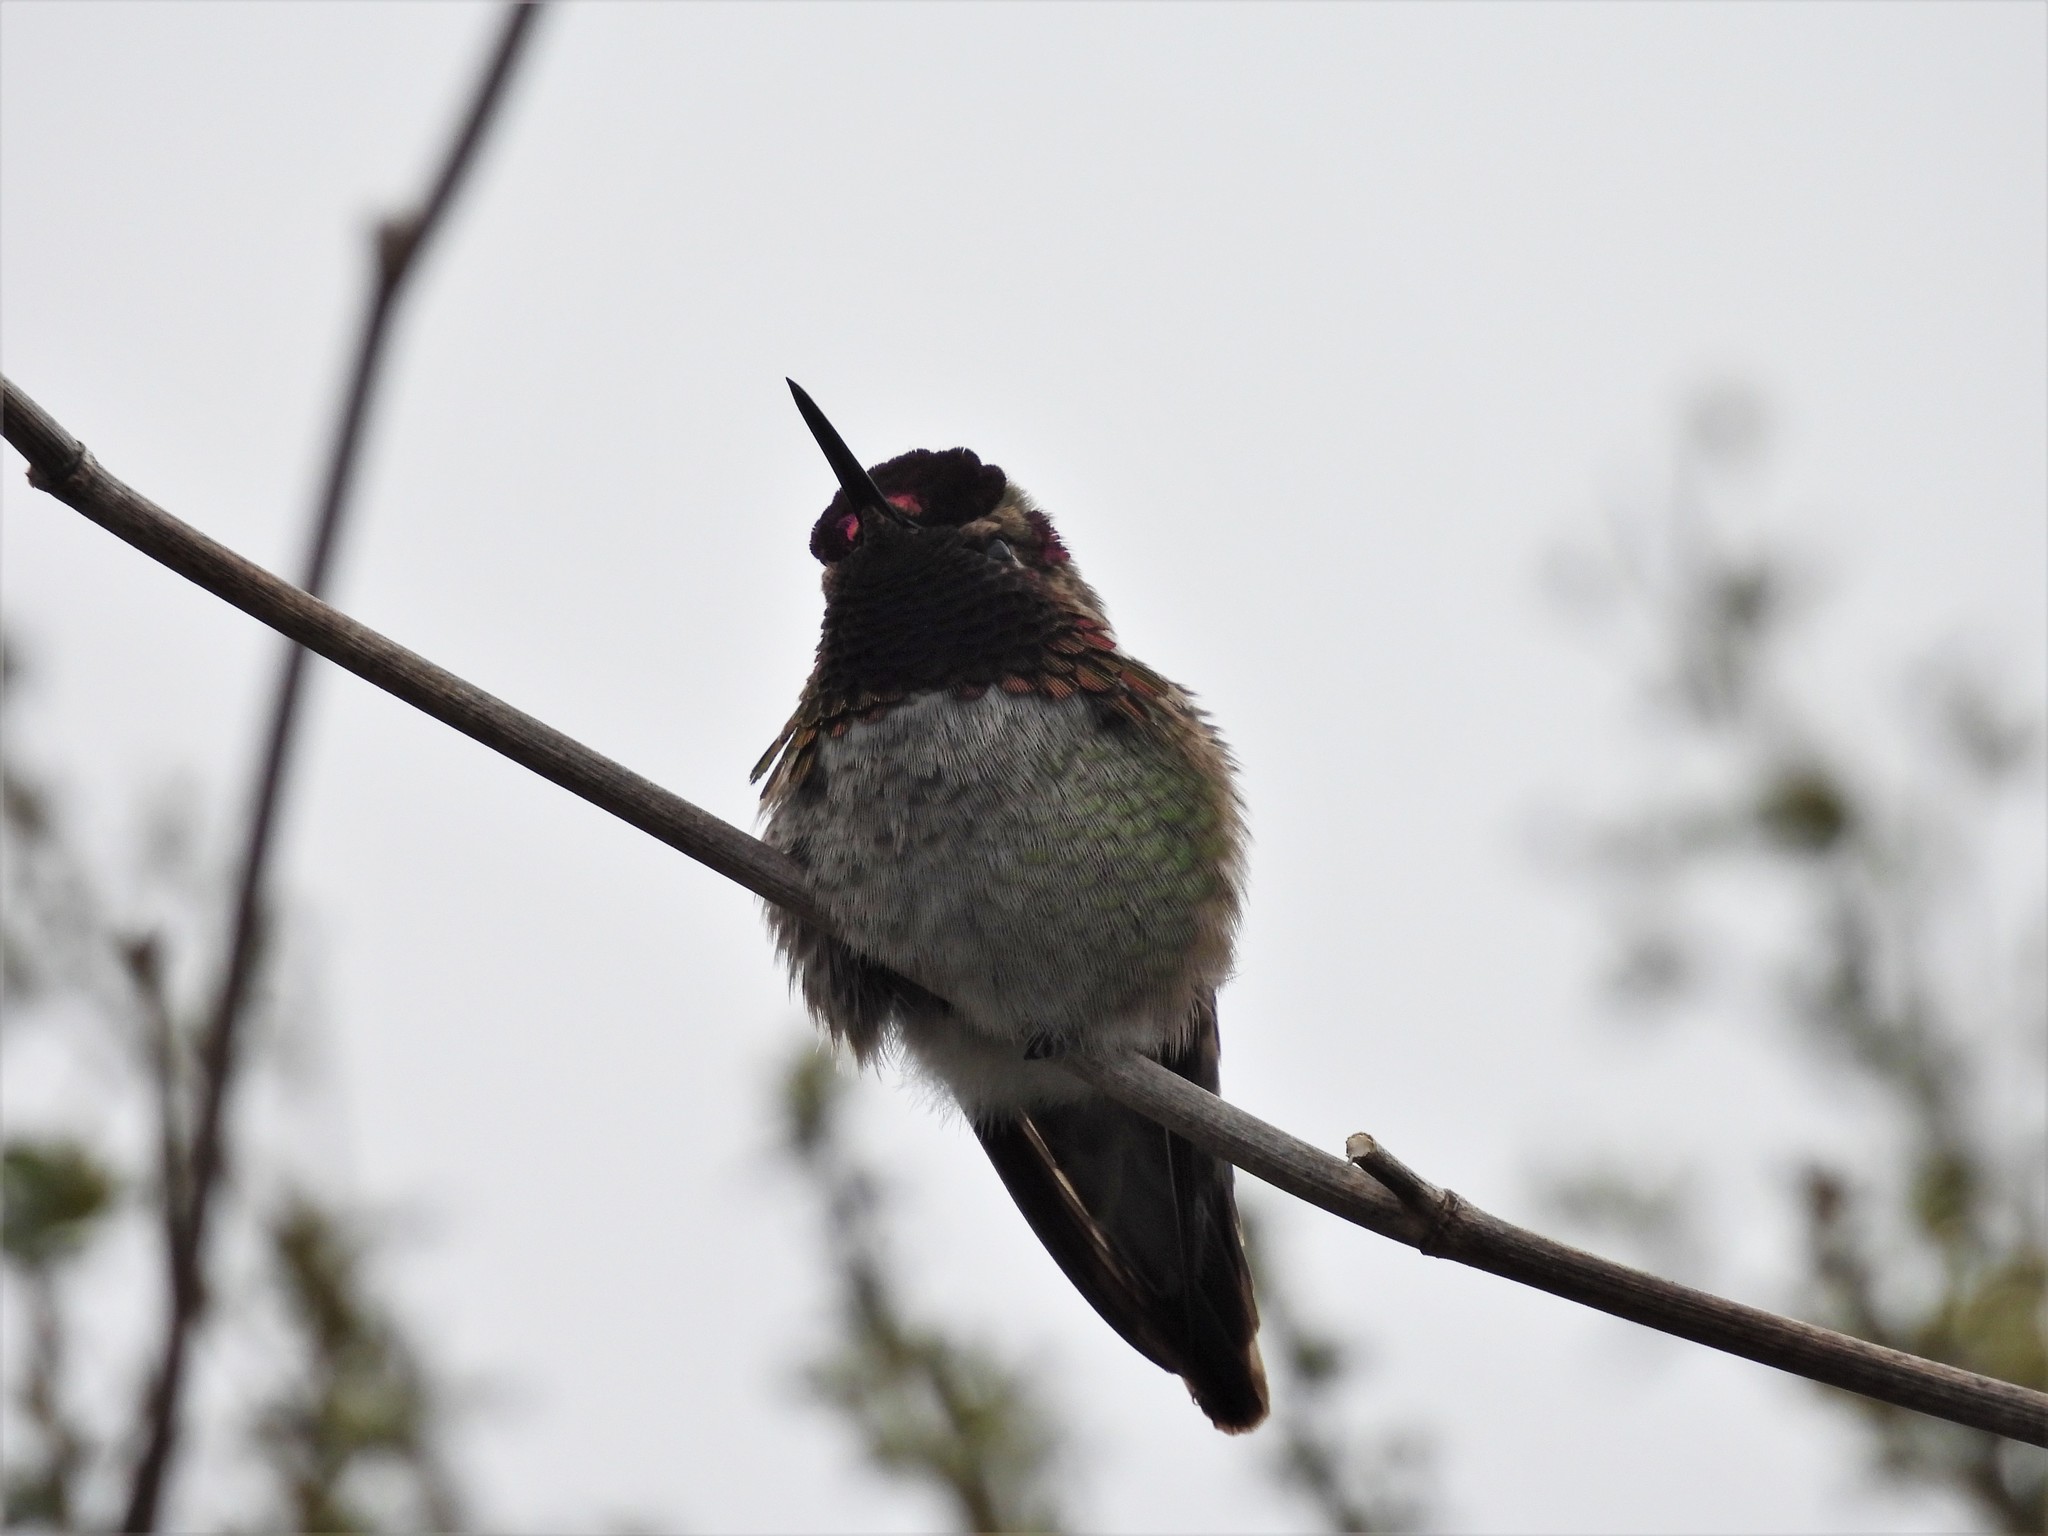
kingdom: Animalia
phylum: Chordata
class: Aves
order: Apodiformes
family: Trochilidae
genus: Calypte
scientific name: Calypte anna
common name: Anna's hummingbird
